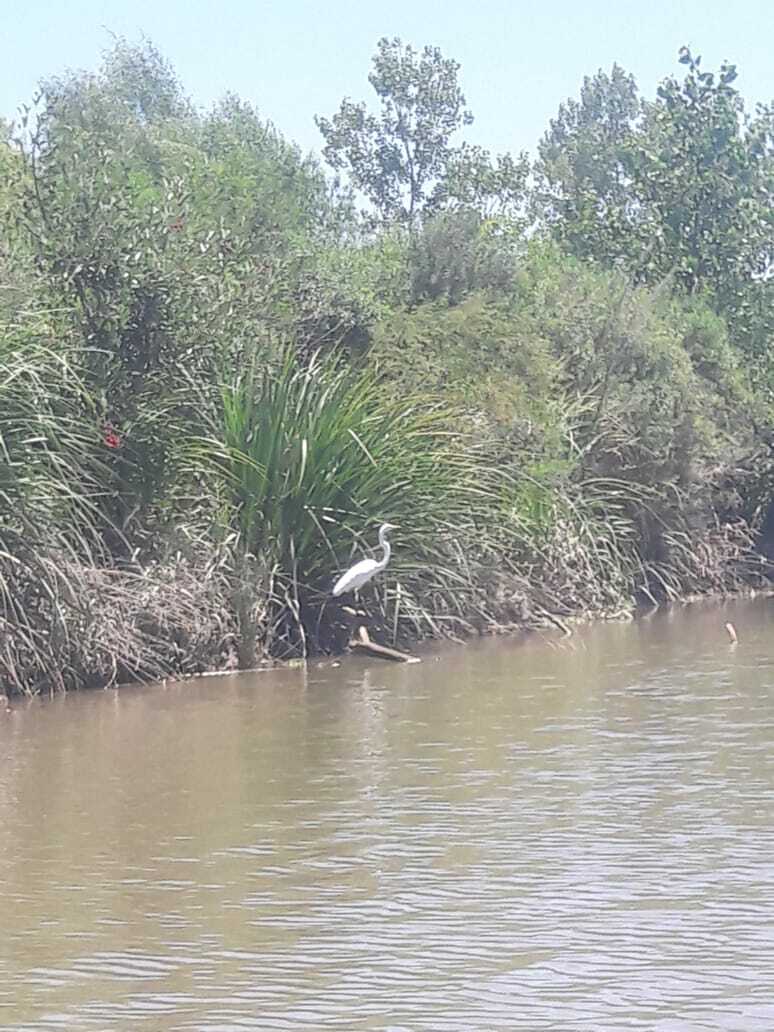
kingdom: Animalia
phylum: Chordata
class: Aves
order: Pelecaniformes
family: Ardeidae
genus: Ardea
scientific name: Ardea alba
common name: Great egret
